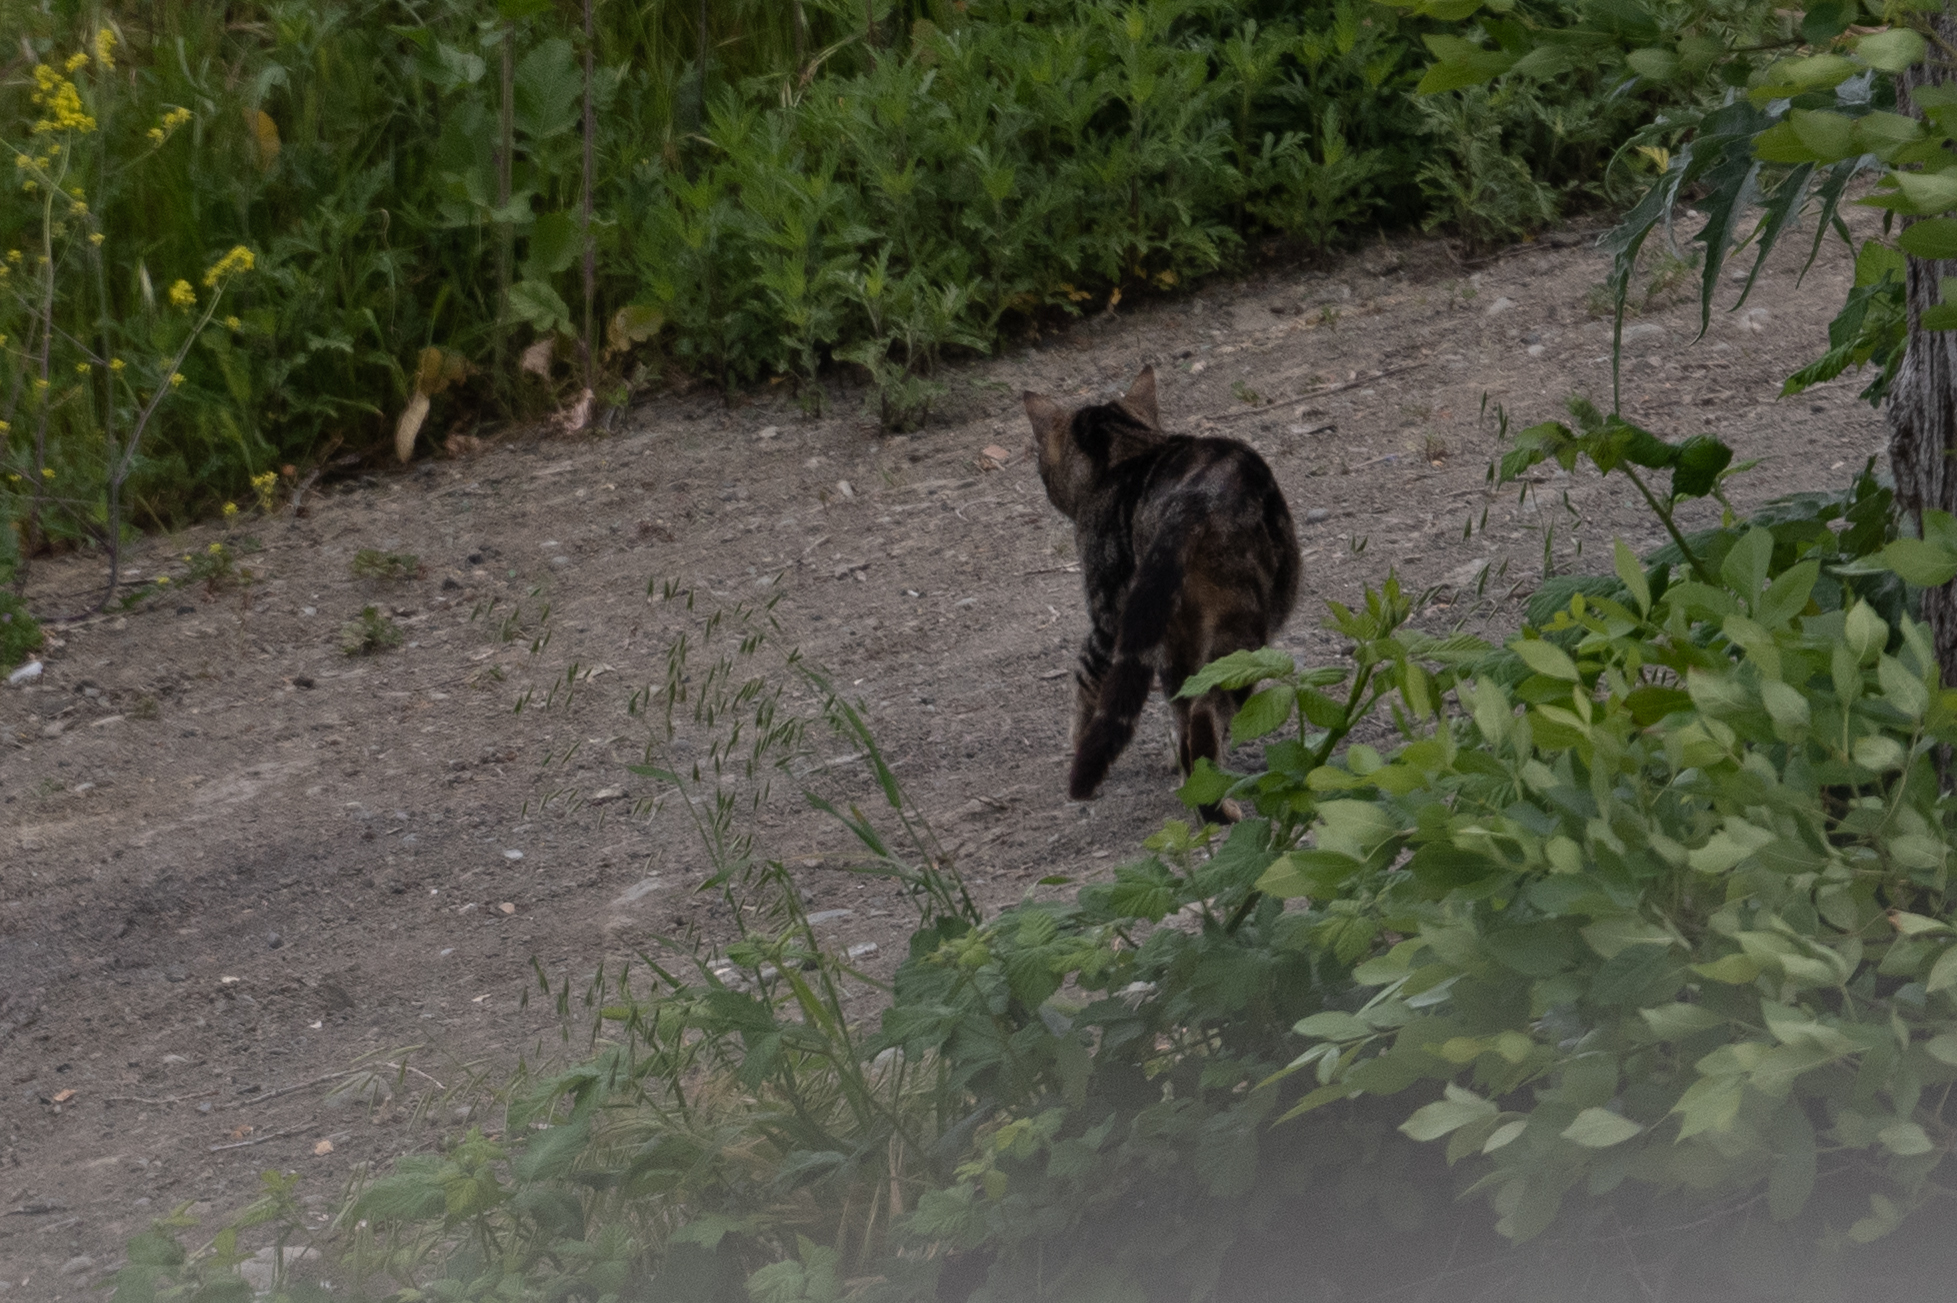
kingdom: Animalia
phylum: Chordata
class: Mammalia
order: Carnivora
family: Felidae
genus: Felis
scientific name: Felis catus
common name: Domestic cat
